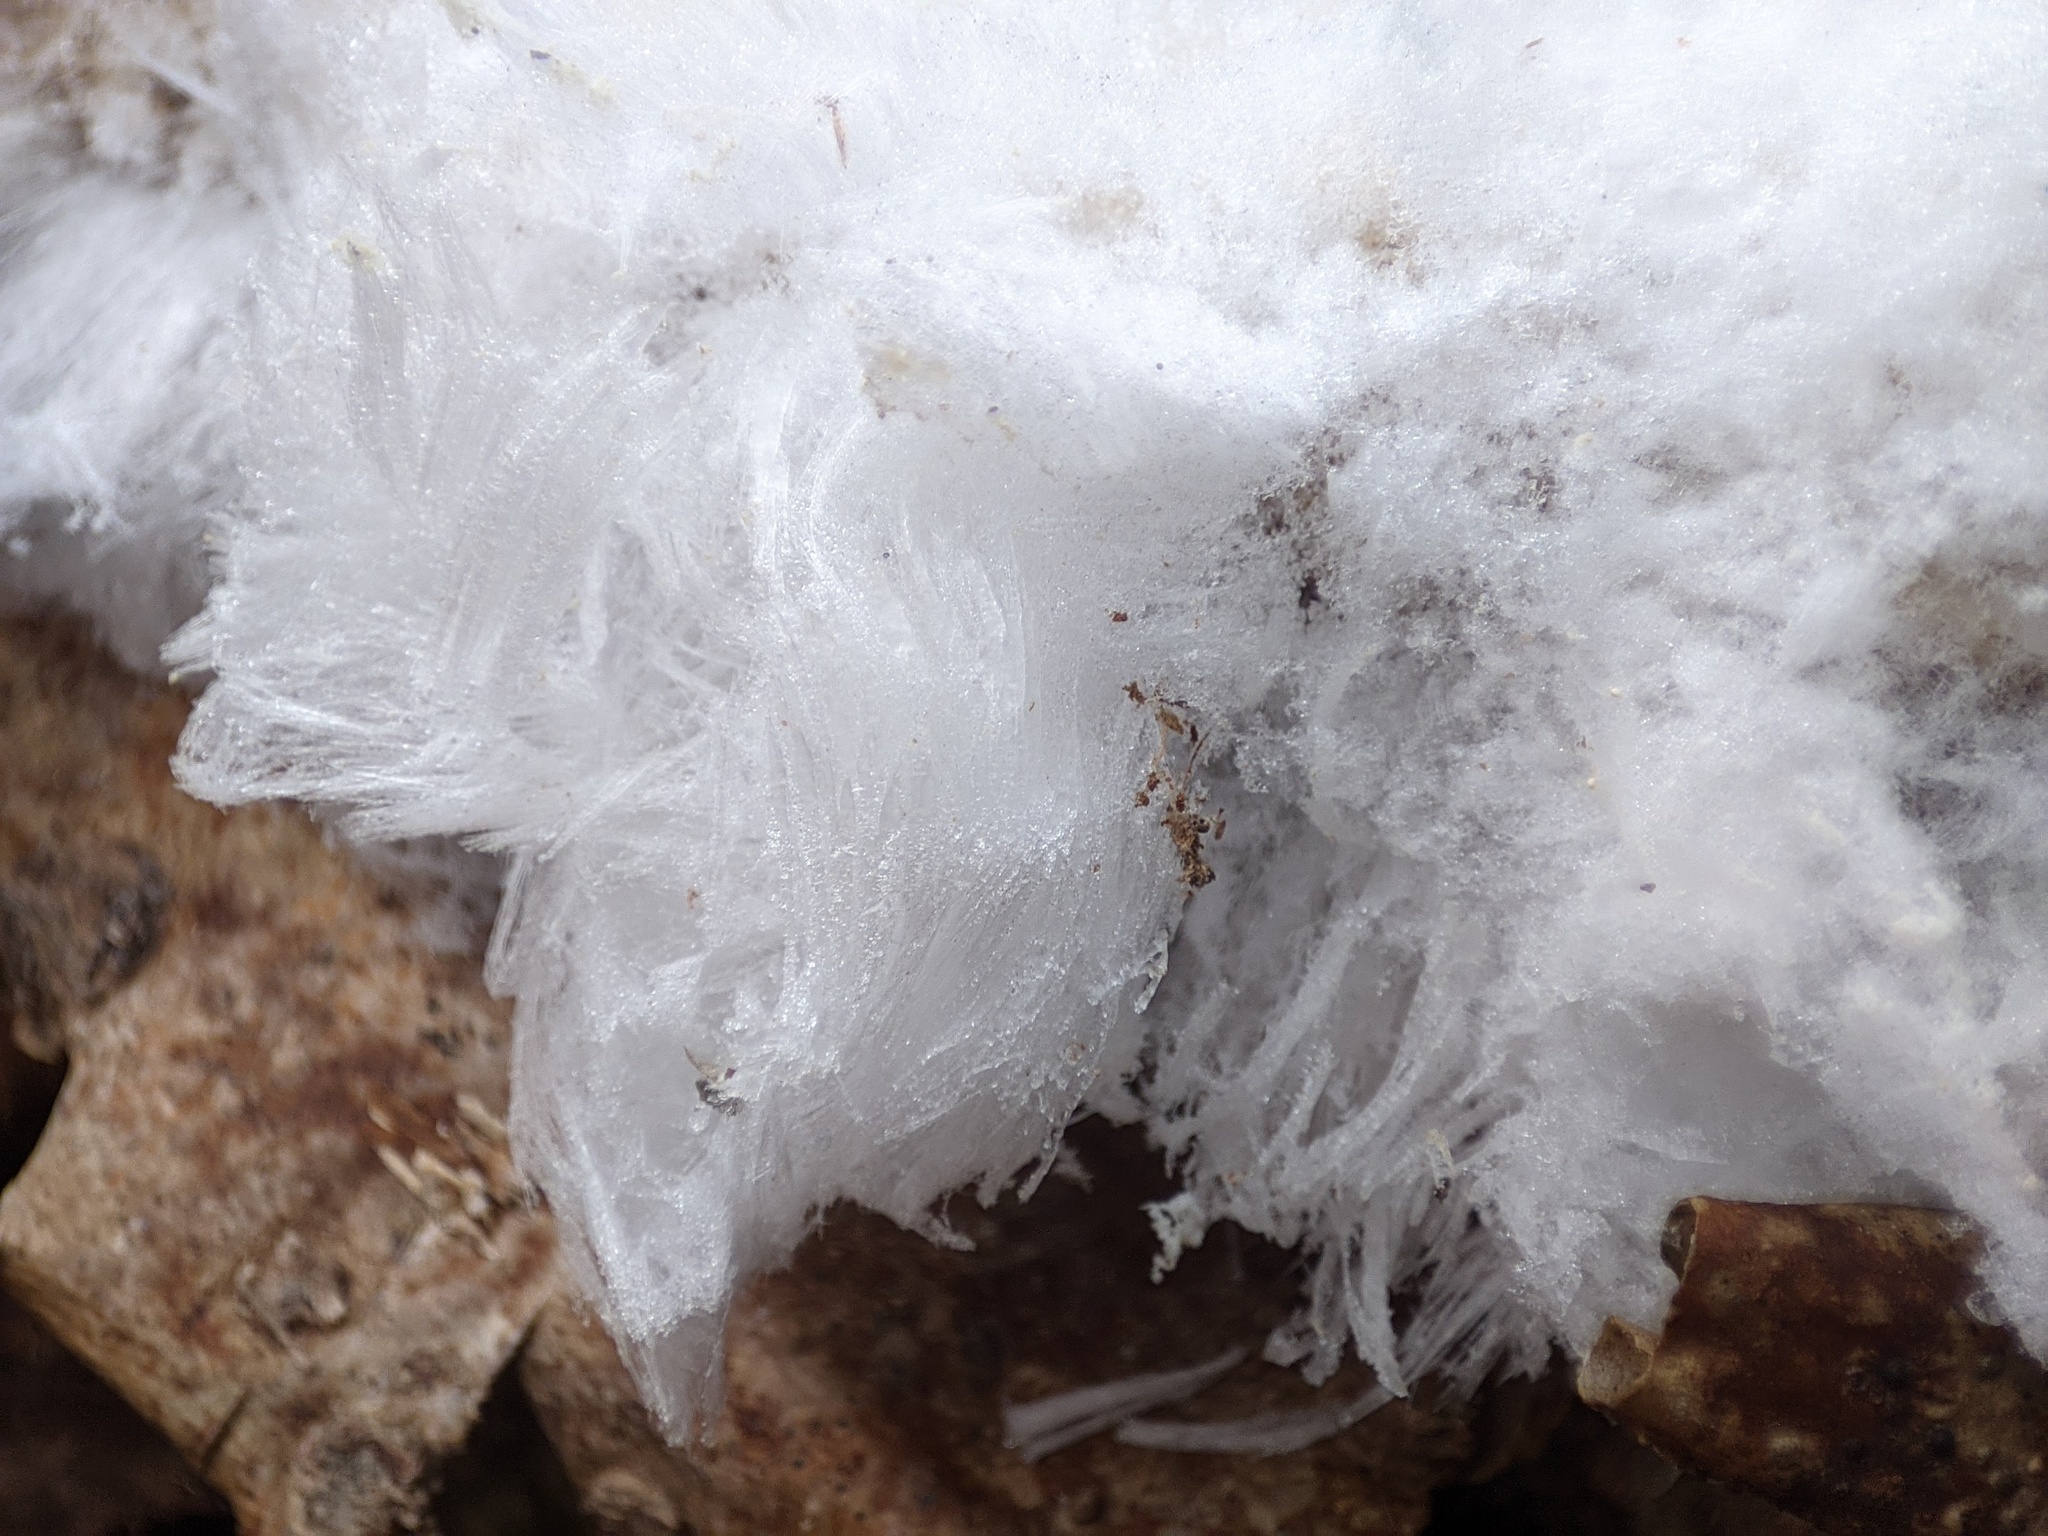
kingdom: Fungi
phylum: Basidiomycota
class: Agaricomycetes
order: Auriculariales
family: Auriculariaceae
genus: Exidiopsis
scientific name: Exidiopsis effusa
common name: Hair ice crust
